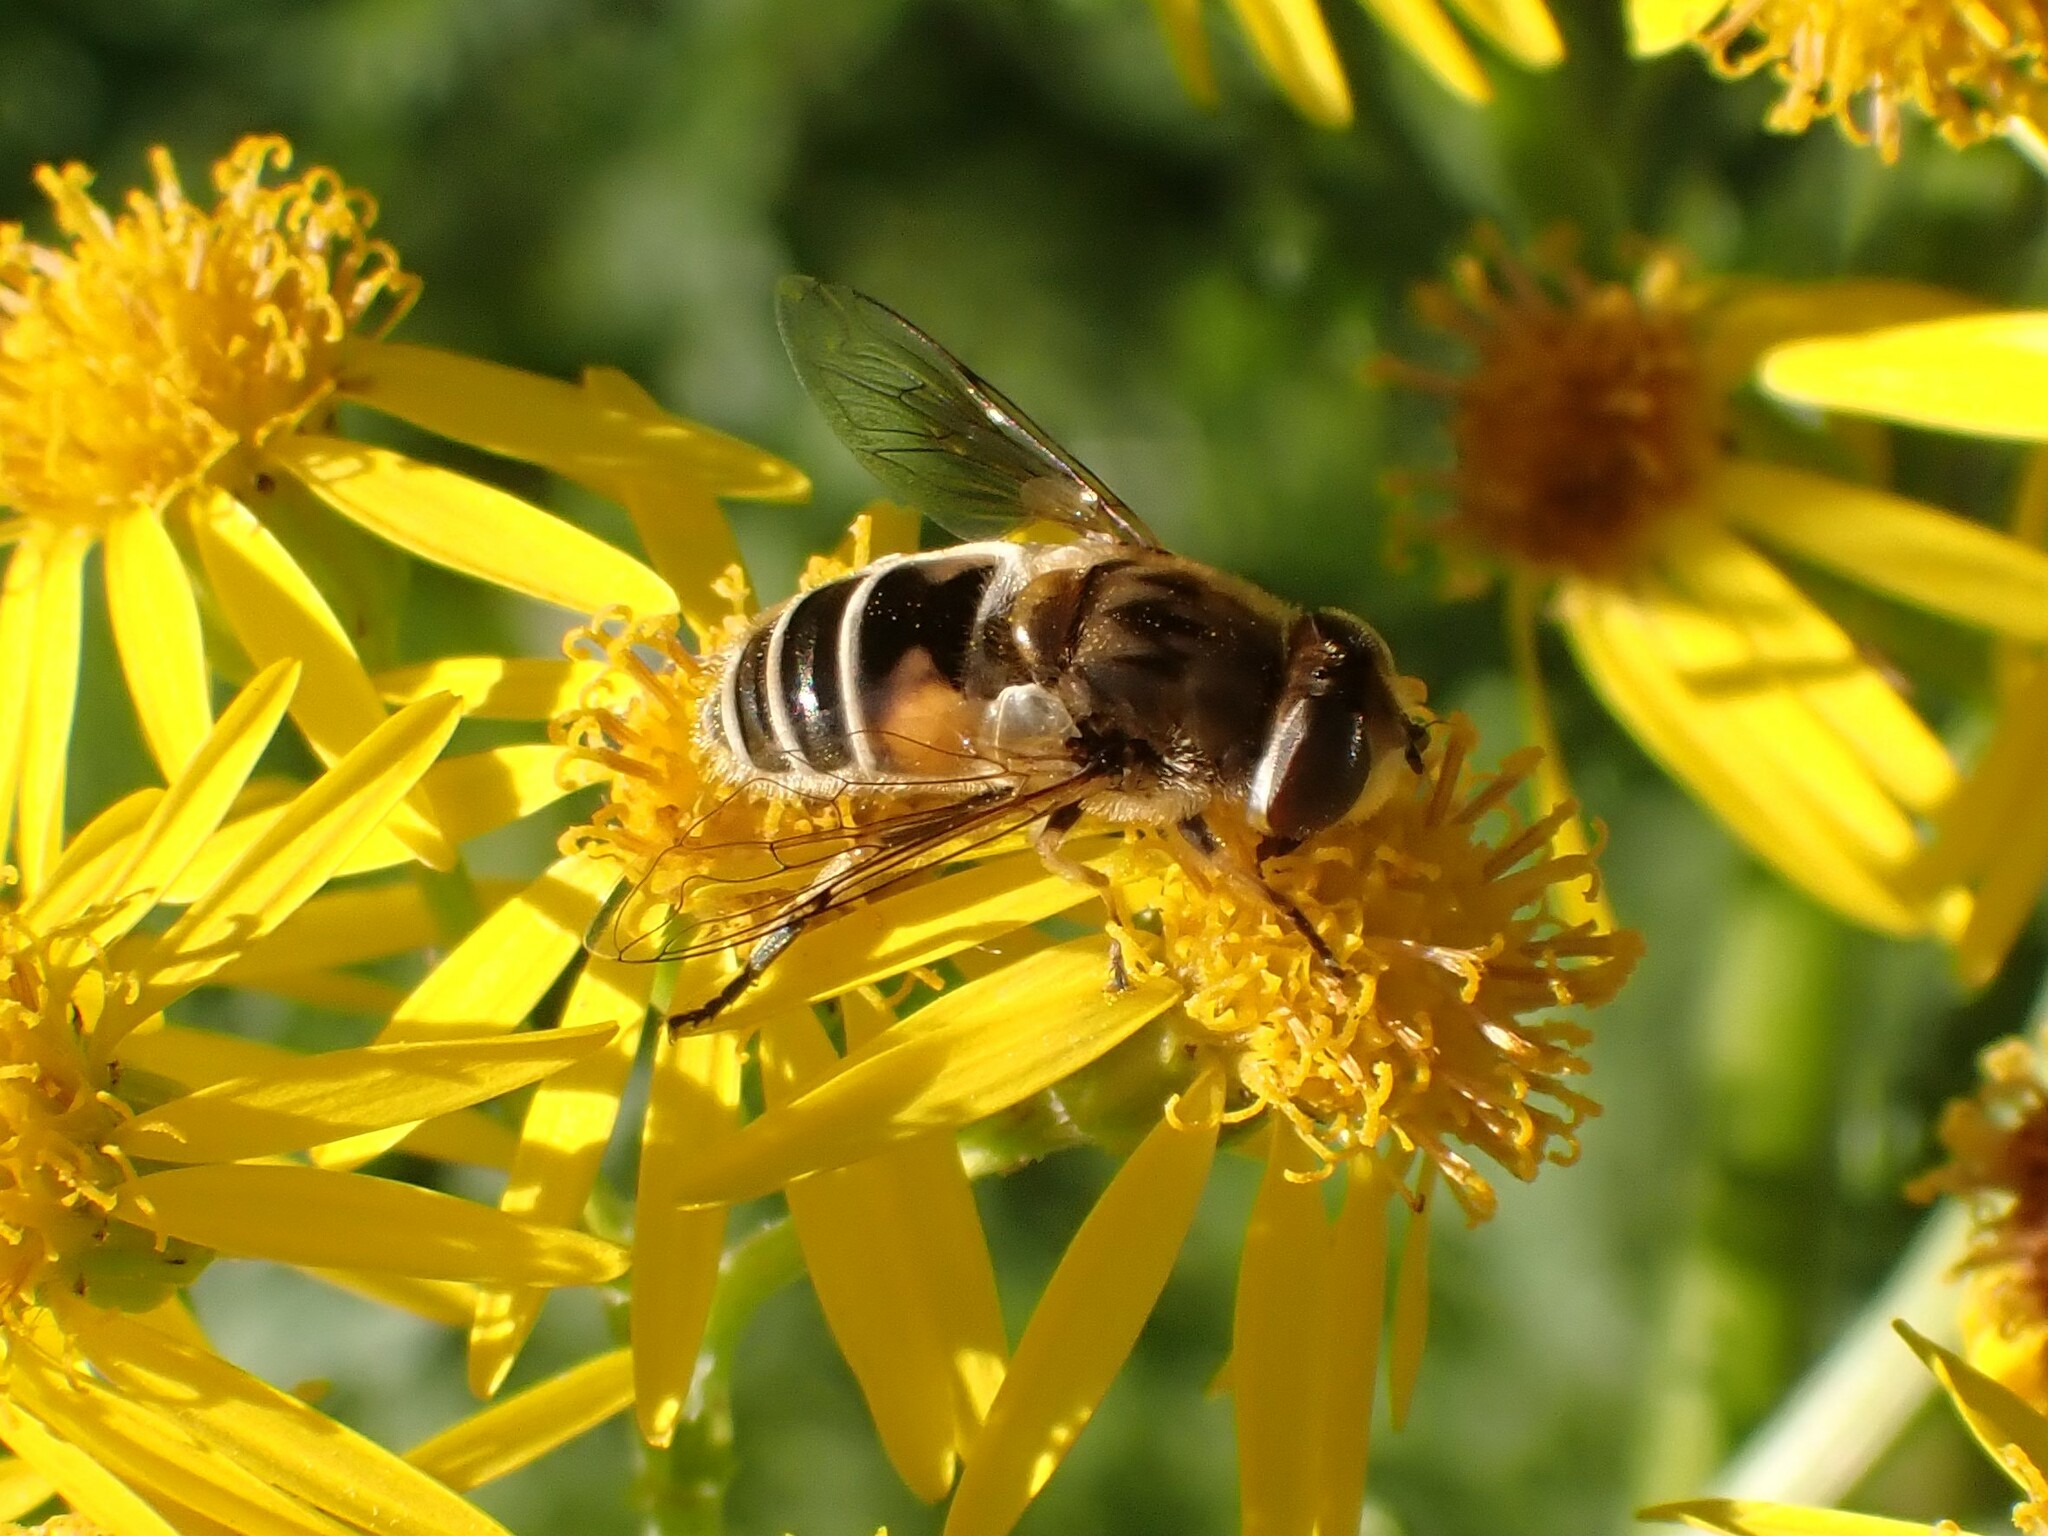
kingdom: Animalia
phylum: Arthropoda
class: Insecta
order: Diptera
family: Syrphidae
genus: Eristalis
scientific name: Eristalis arbustorum
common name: Hover fly
